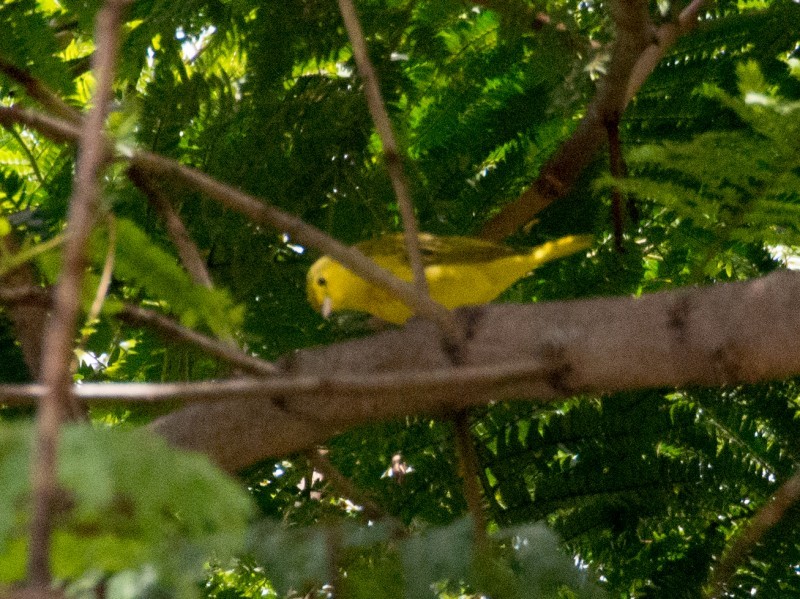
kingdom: Animalia
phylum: Chordata
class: Aves
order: Passeriformes
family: Parulidae
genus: Setophaga
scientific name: Setophaga petechia
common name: Yellow warbler
